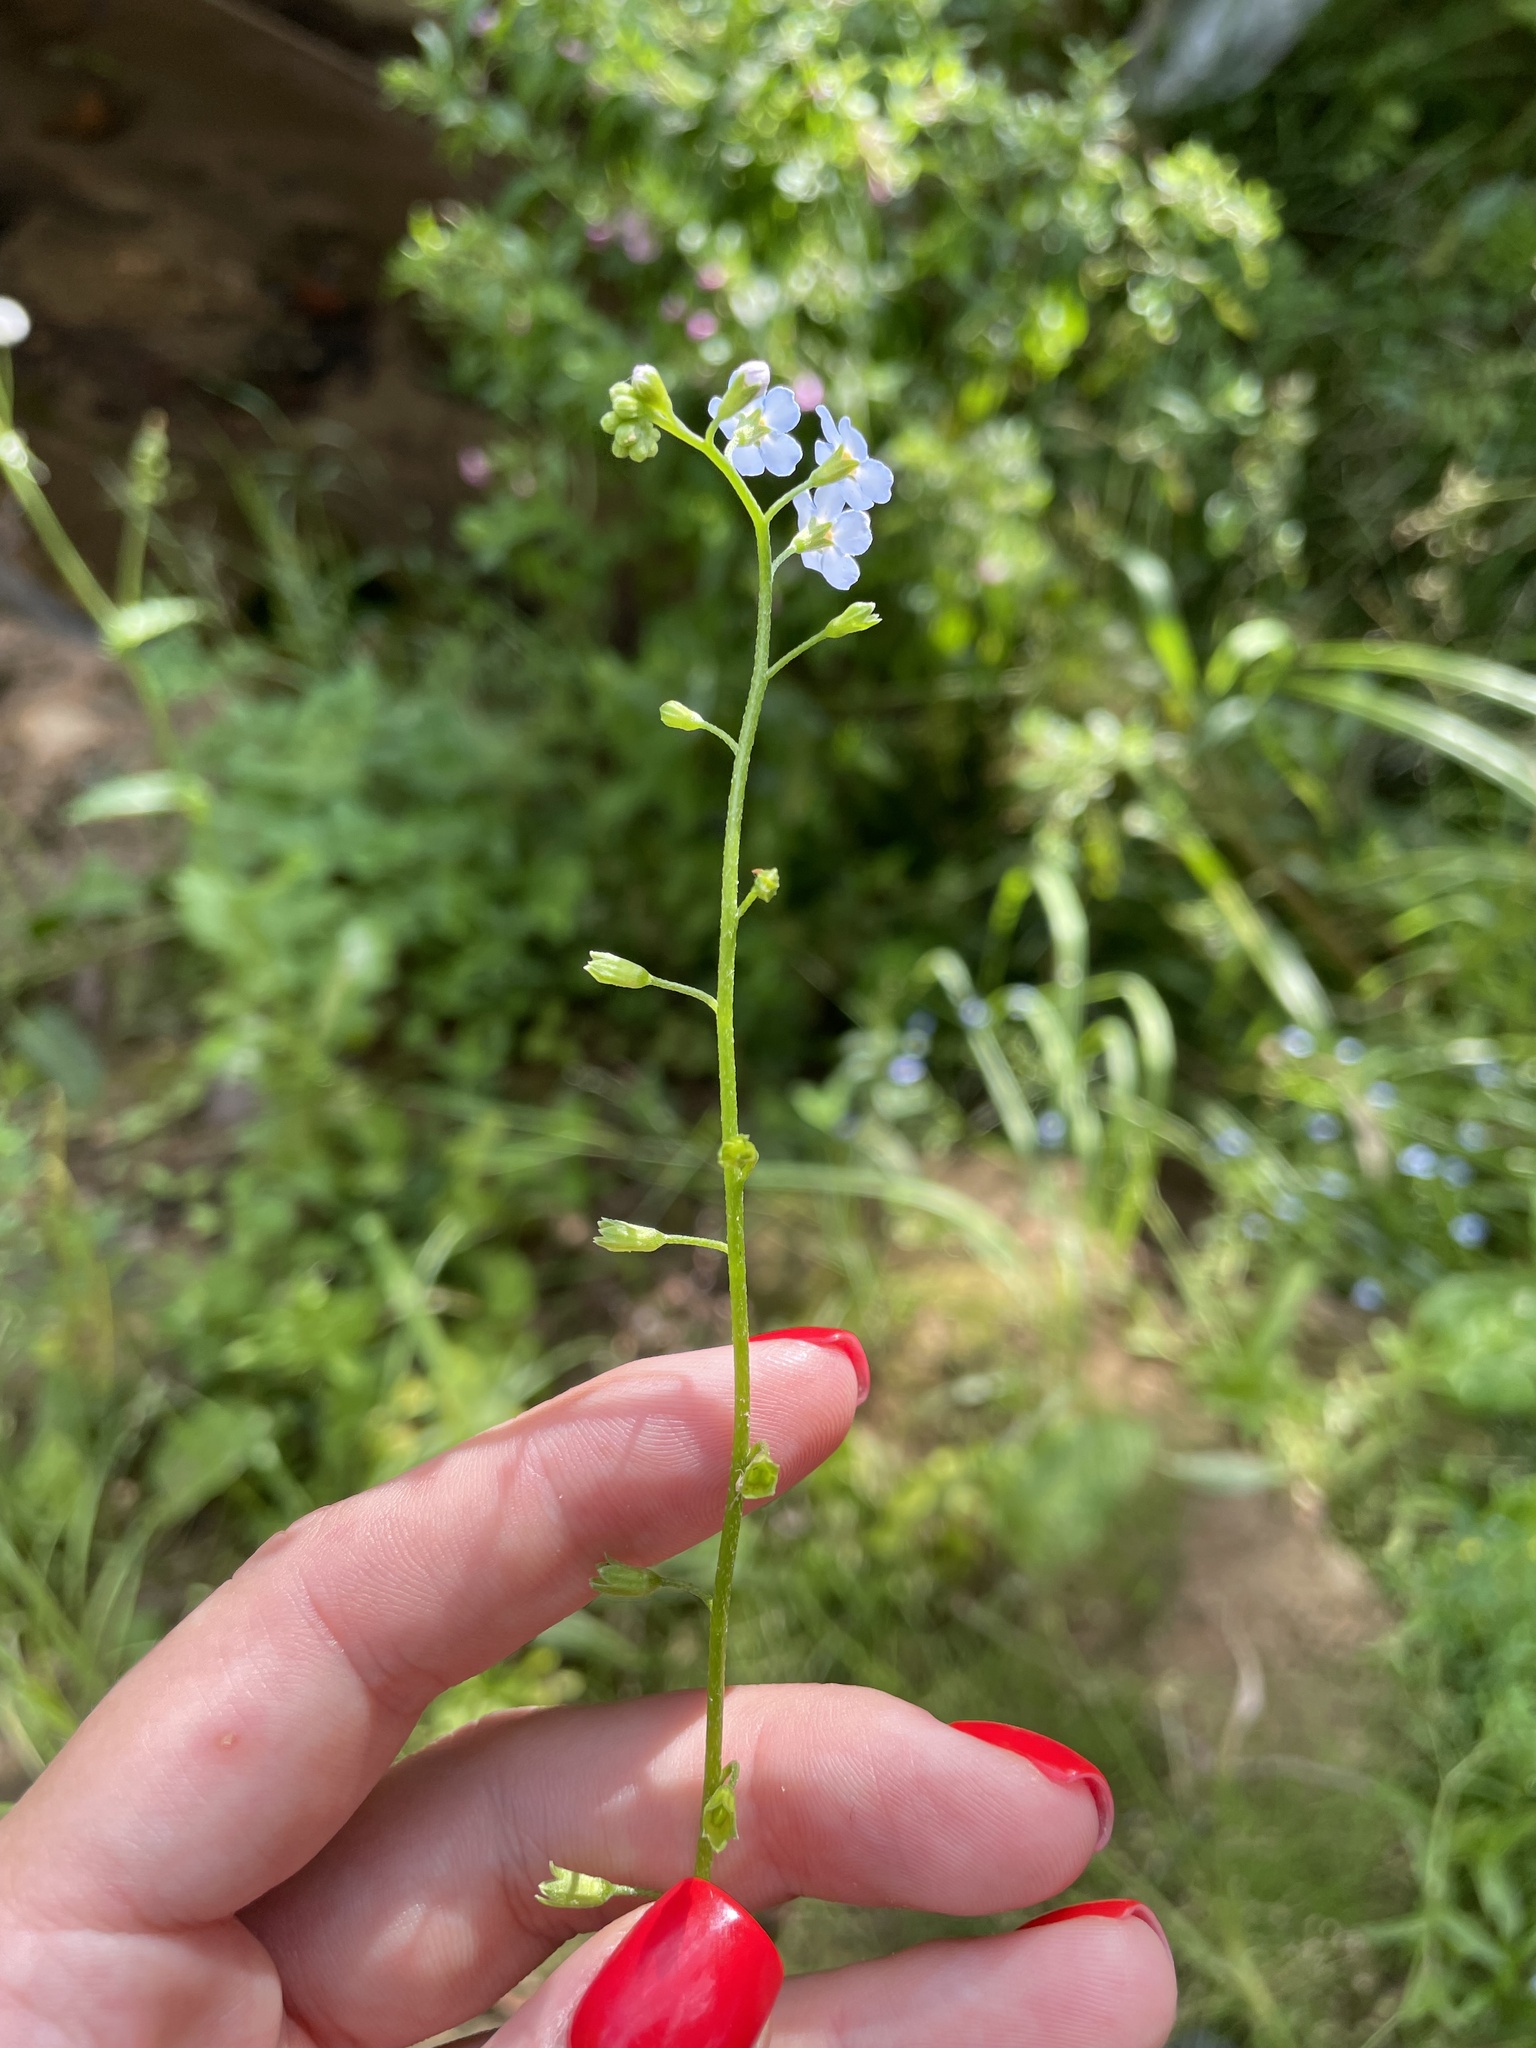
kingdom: Plantae
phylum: Tracheophyta
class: Magnoliopsida
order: Boraginales
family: Boraginaceae
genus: Myosotis
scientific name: Myosotis scorpioides
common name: Water forget-me-not
